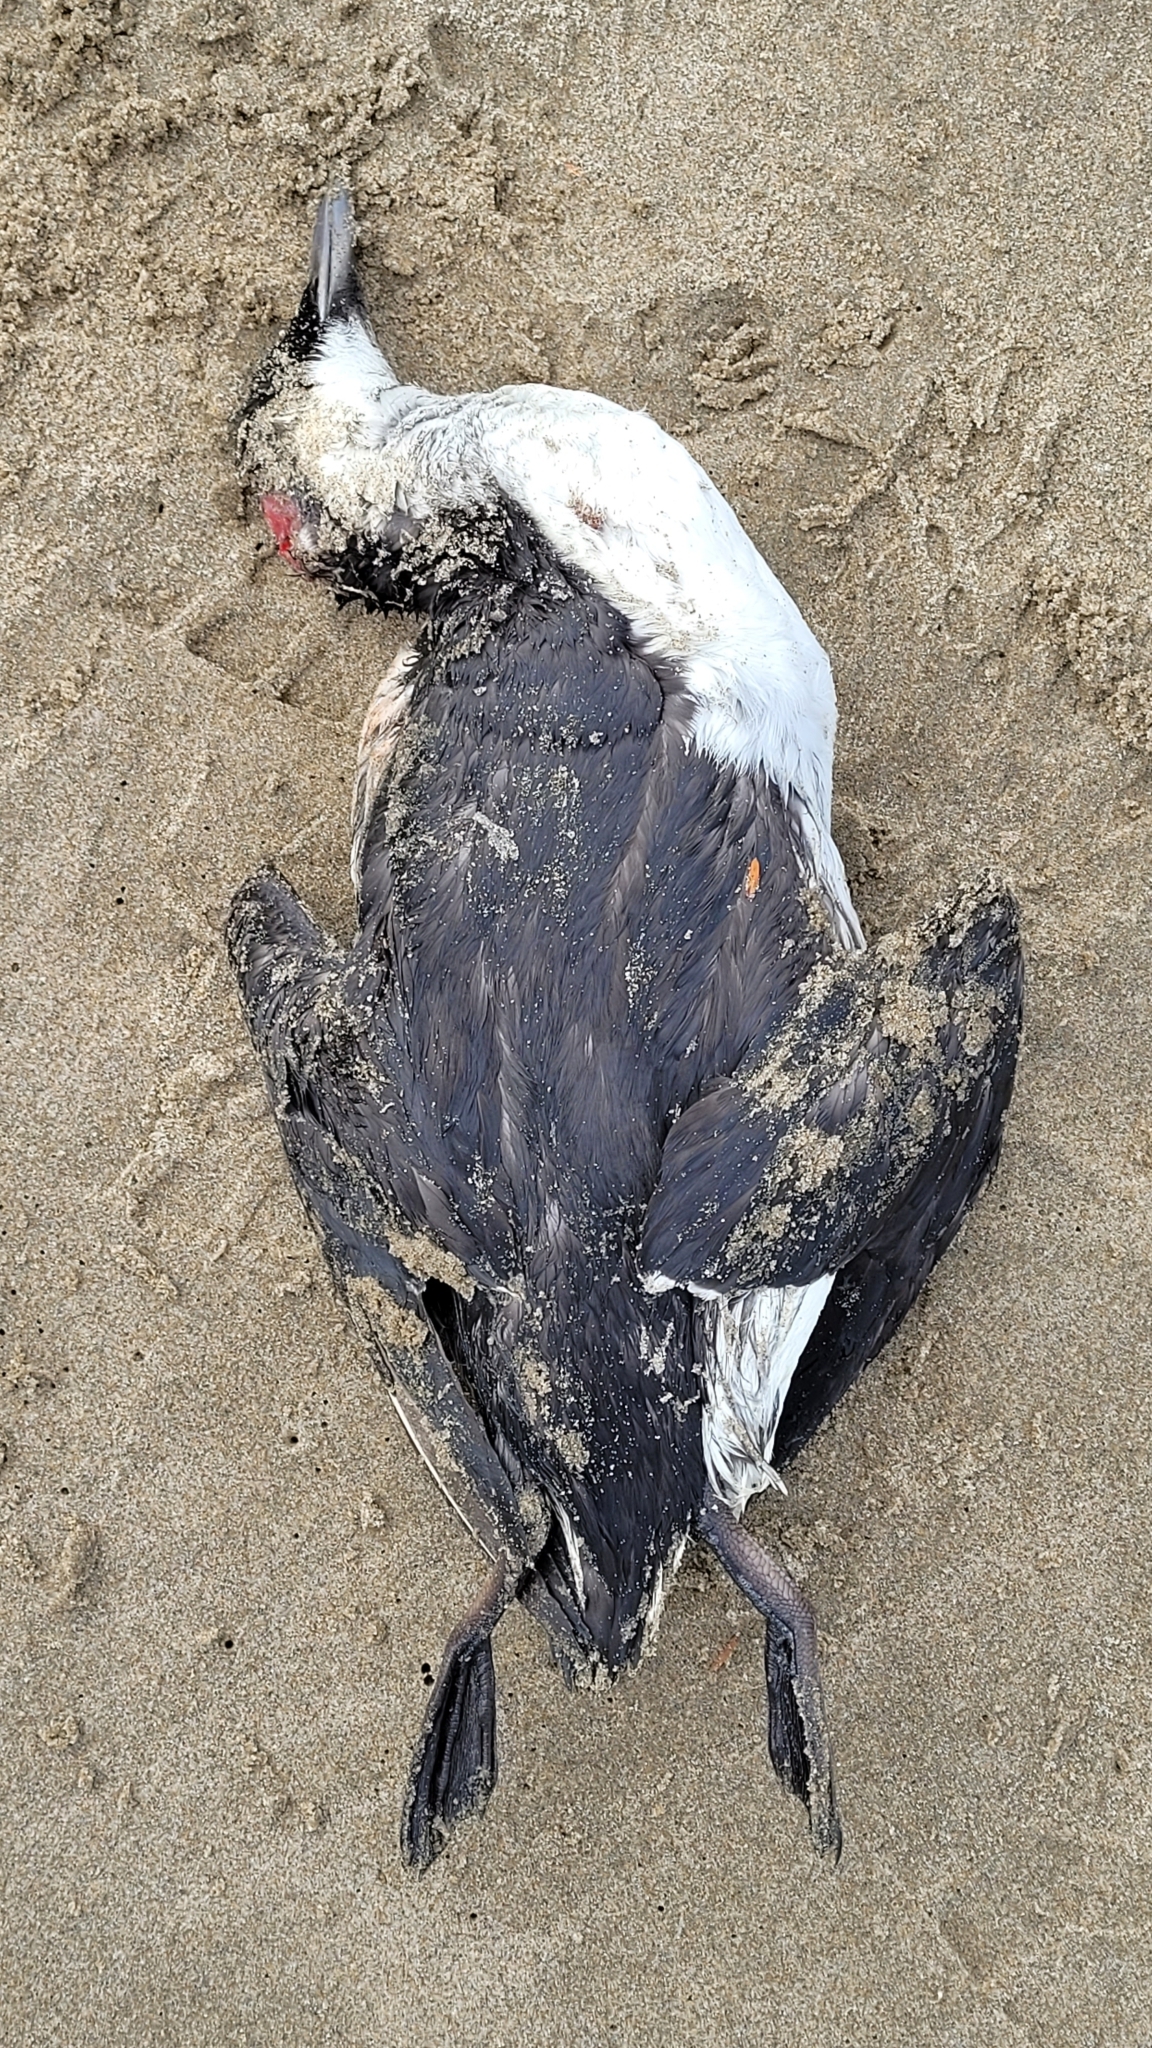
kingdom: Animalia
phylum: Chordata
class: Aves
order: Charadriiformes
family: Alcidae
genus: Uria
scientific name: Uria aalge
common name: Common murre
